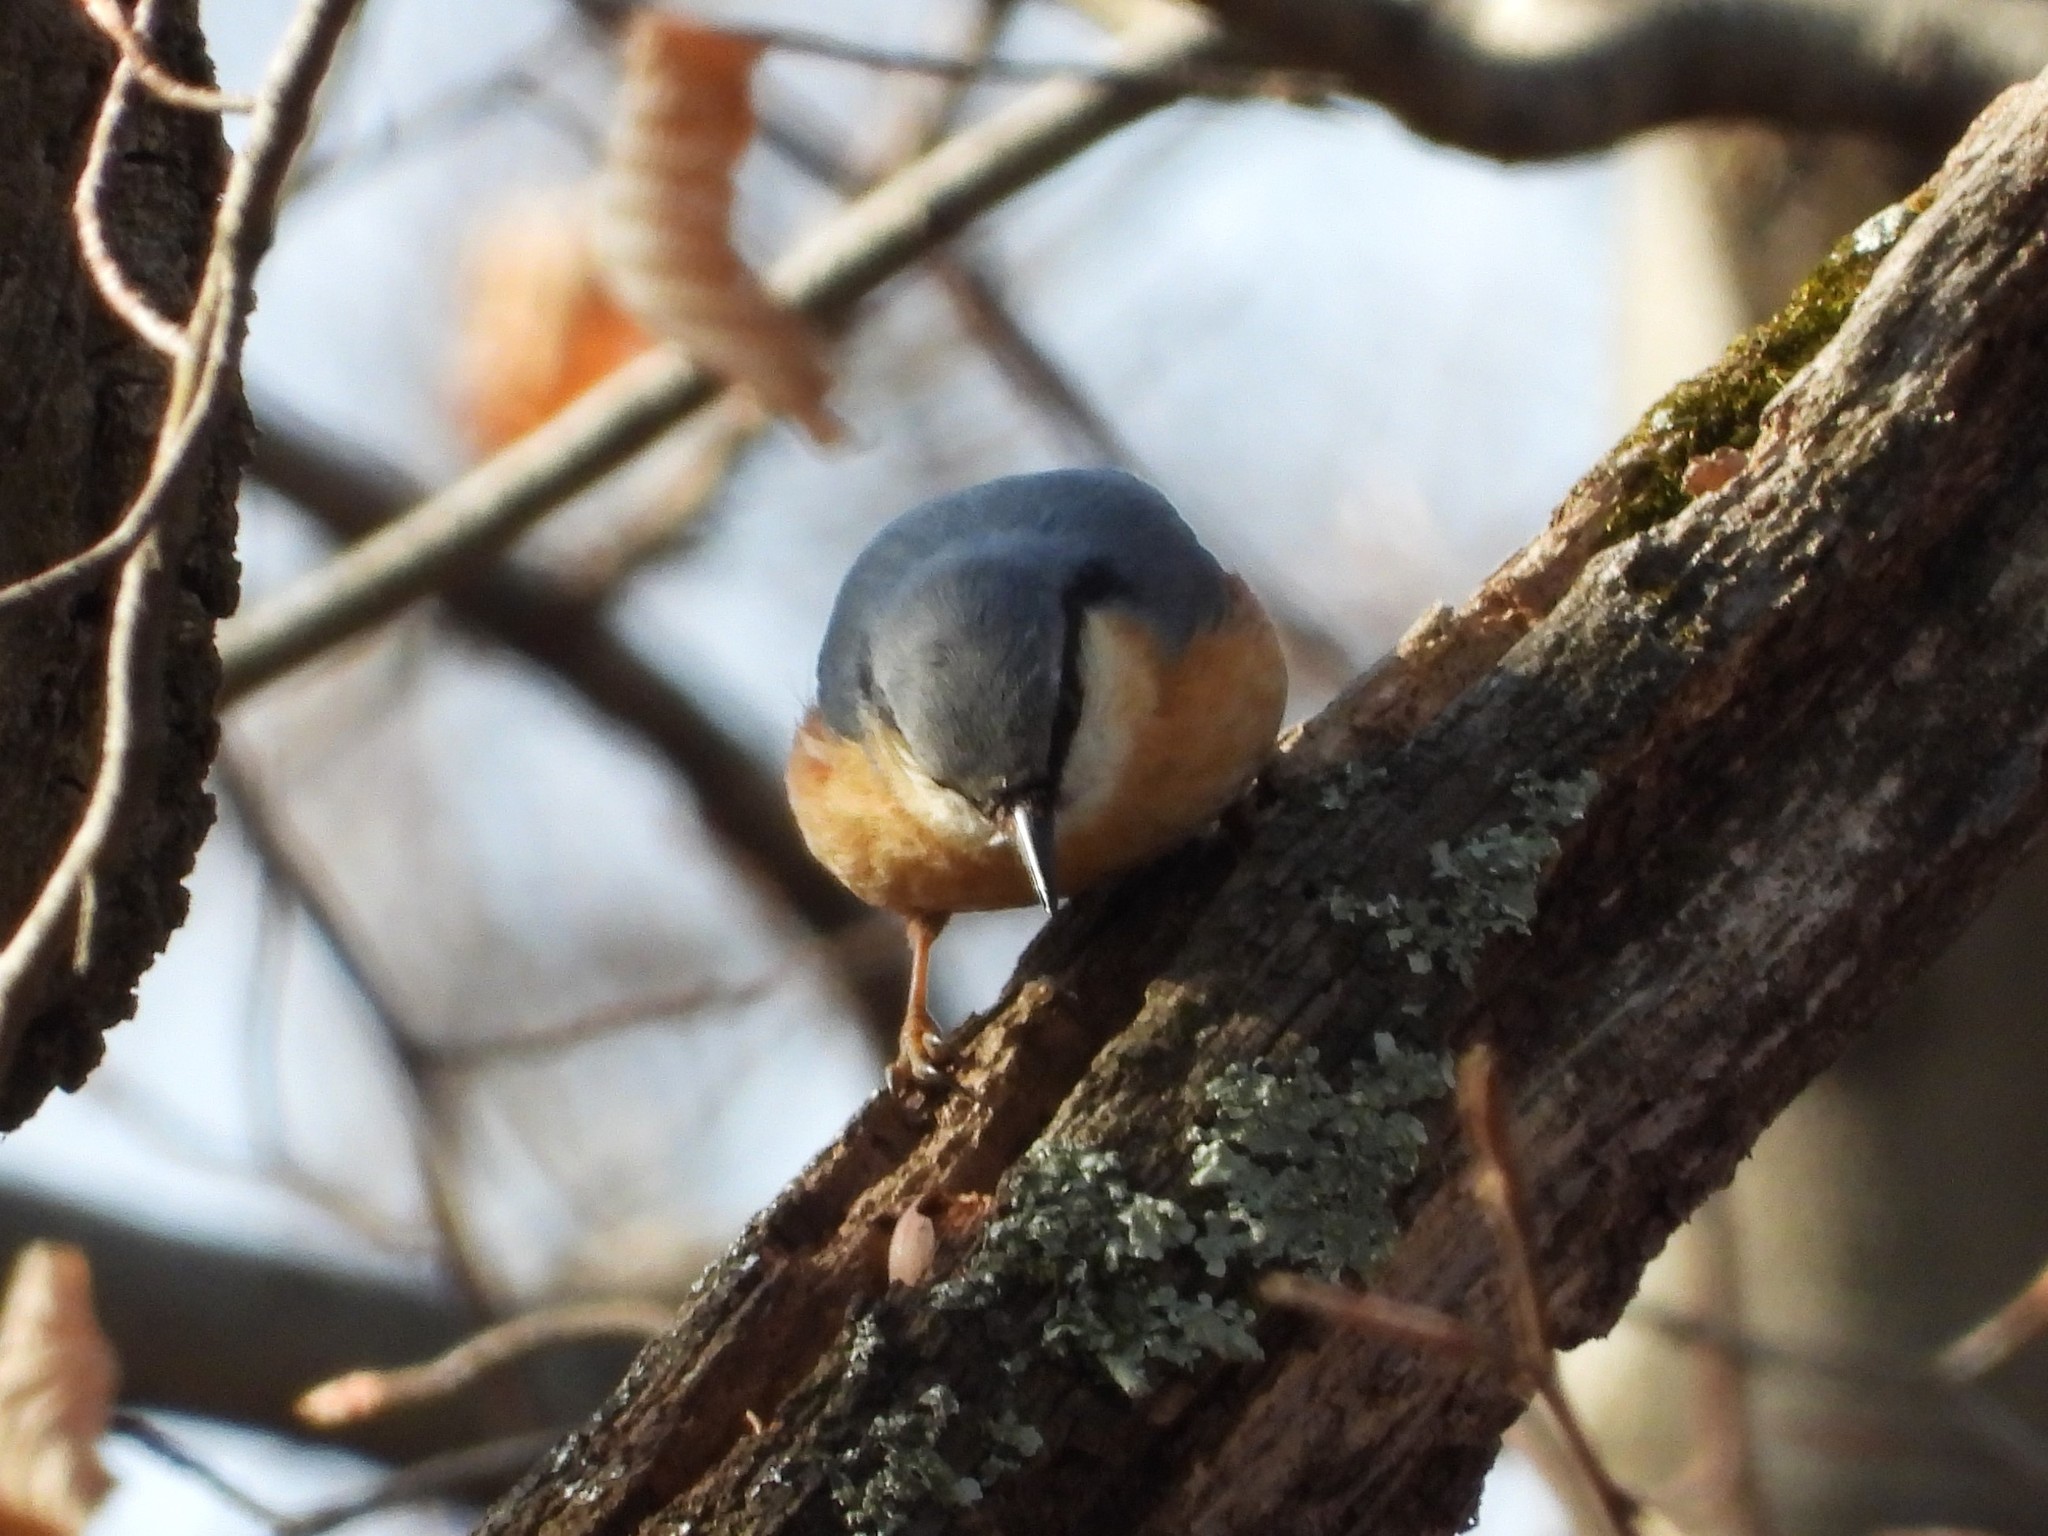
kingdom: Animalia
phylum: Chordata
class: Aves
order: Passeriformes
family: Sittidae
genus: Sitta
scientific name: Sitta europaea
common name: Eurasian nuthatch
